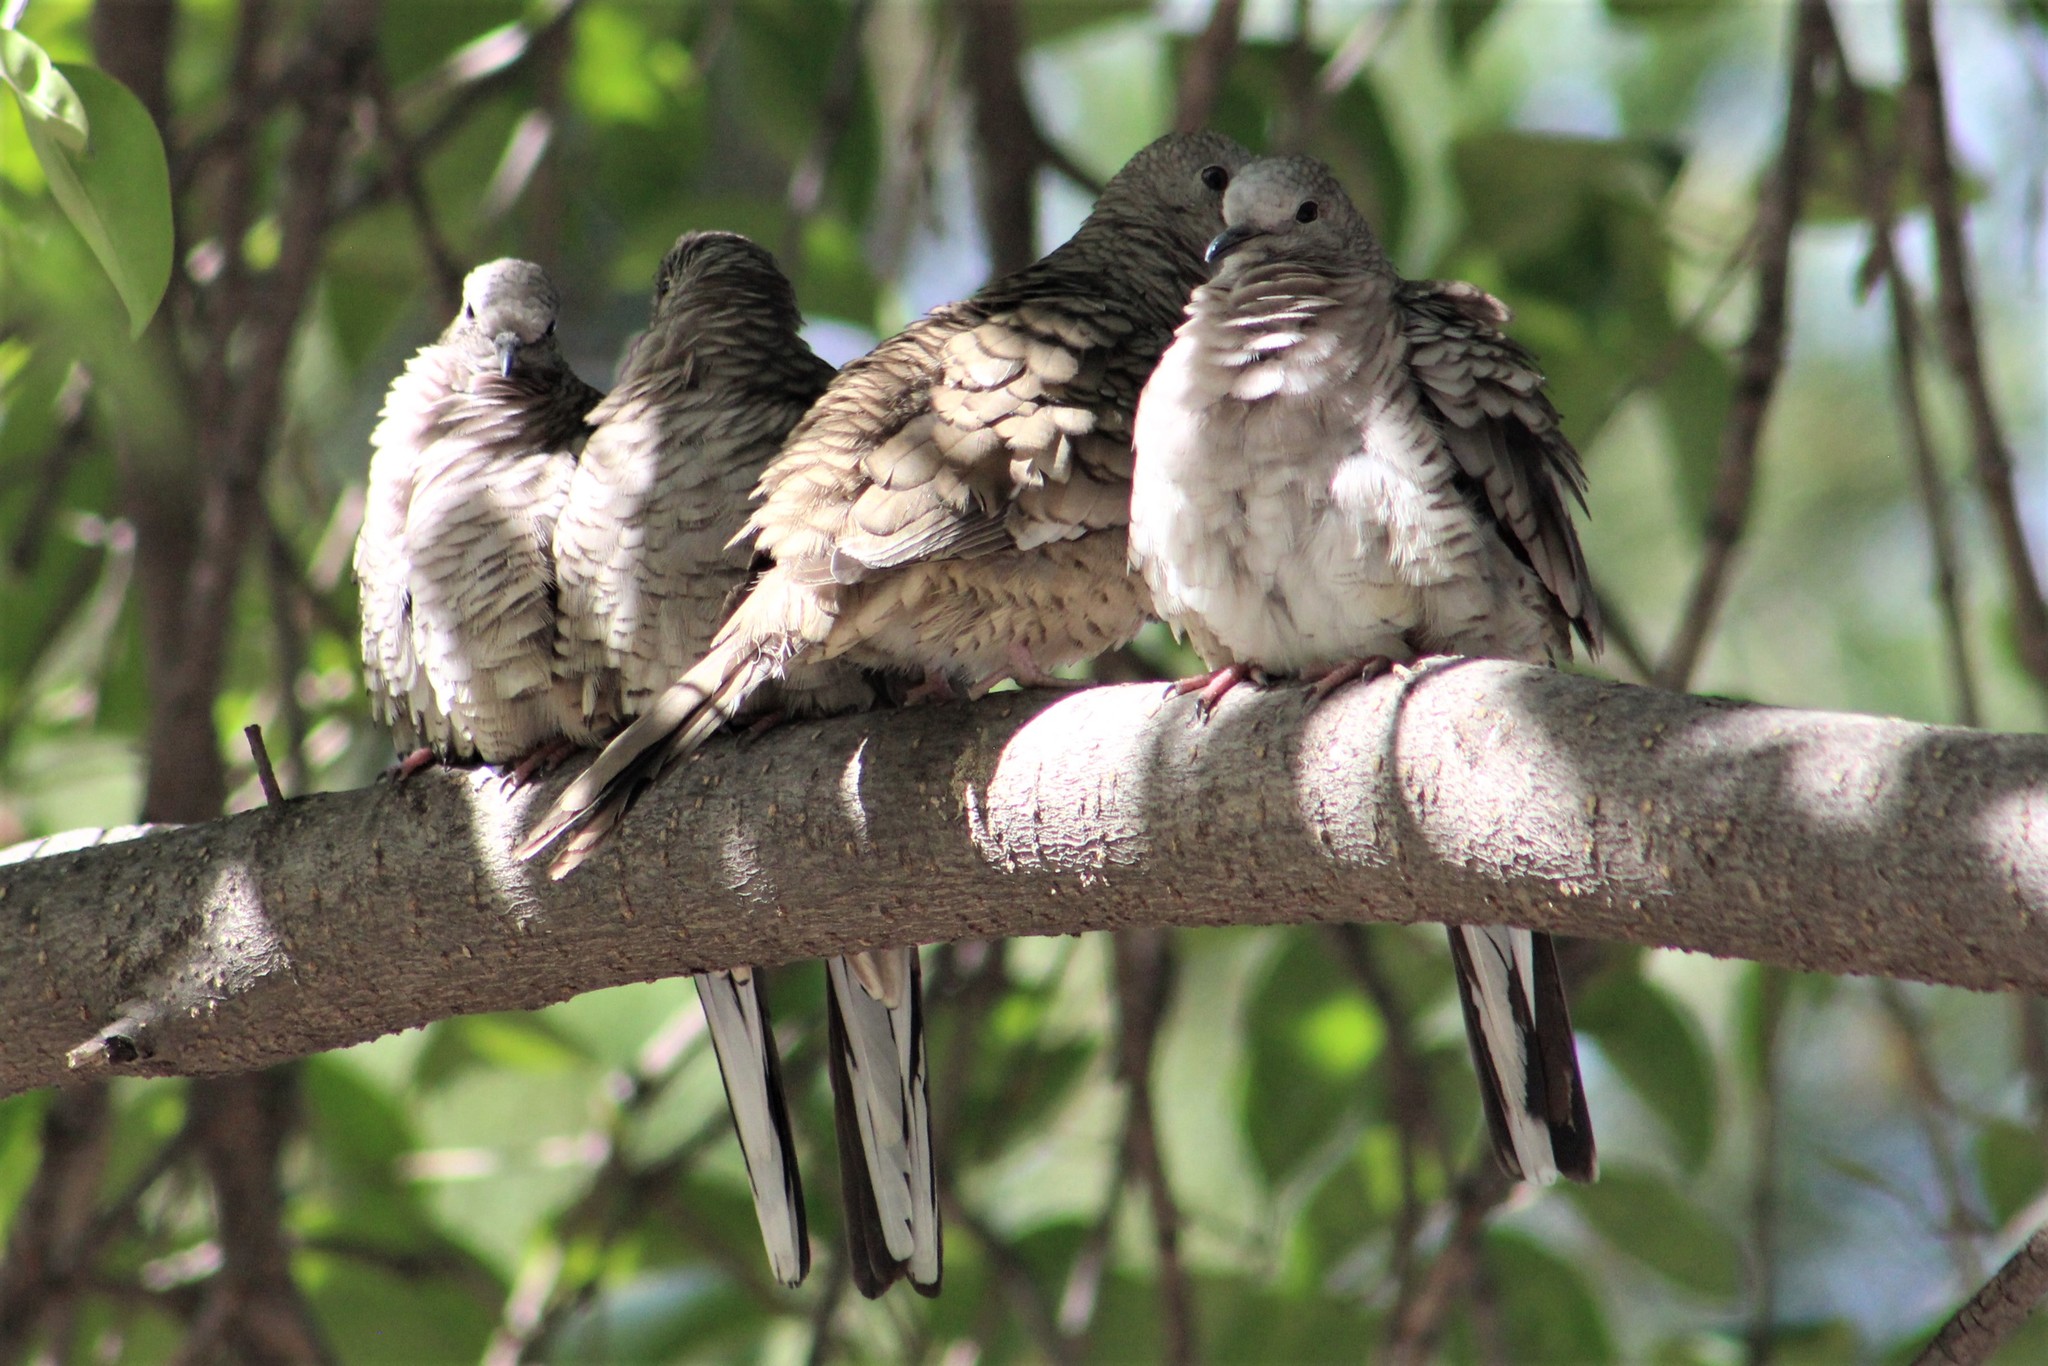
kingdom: Animalia
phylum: Chordata
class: Aves
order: Columbiformes
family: Columbidae
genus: Columbina
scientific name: Columbina inca
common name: Inca dove
